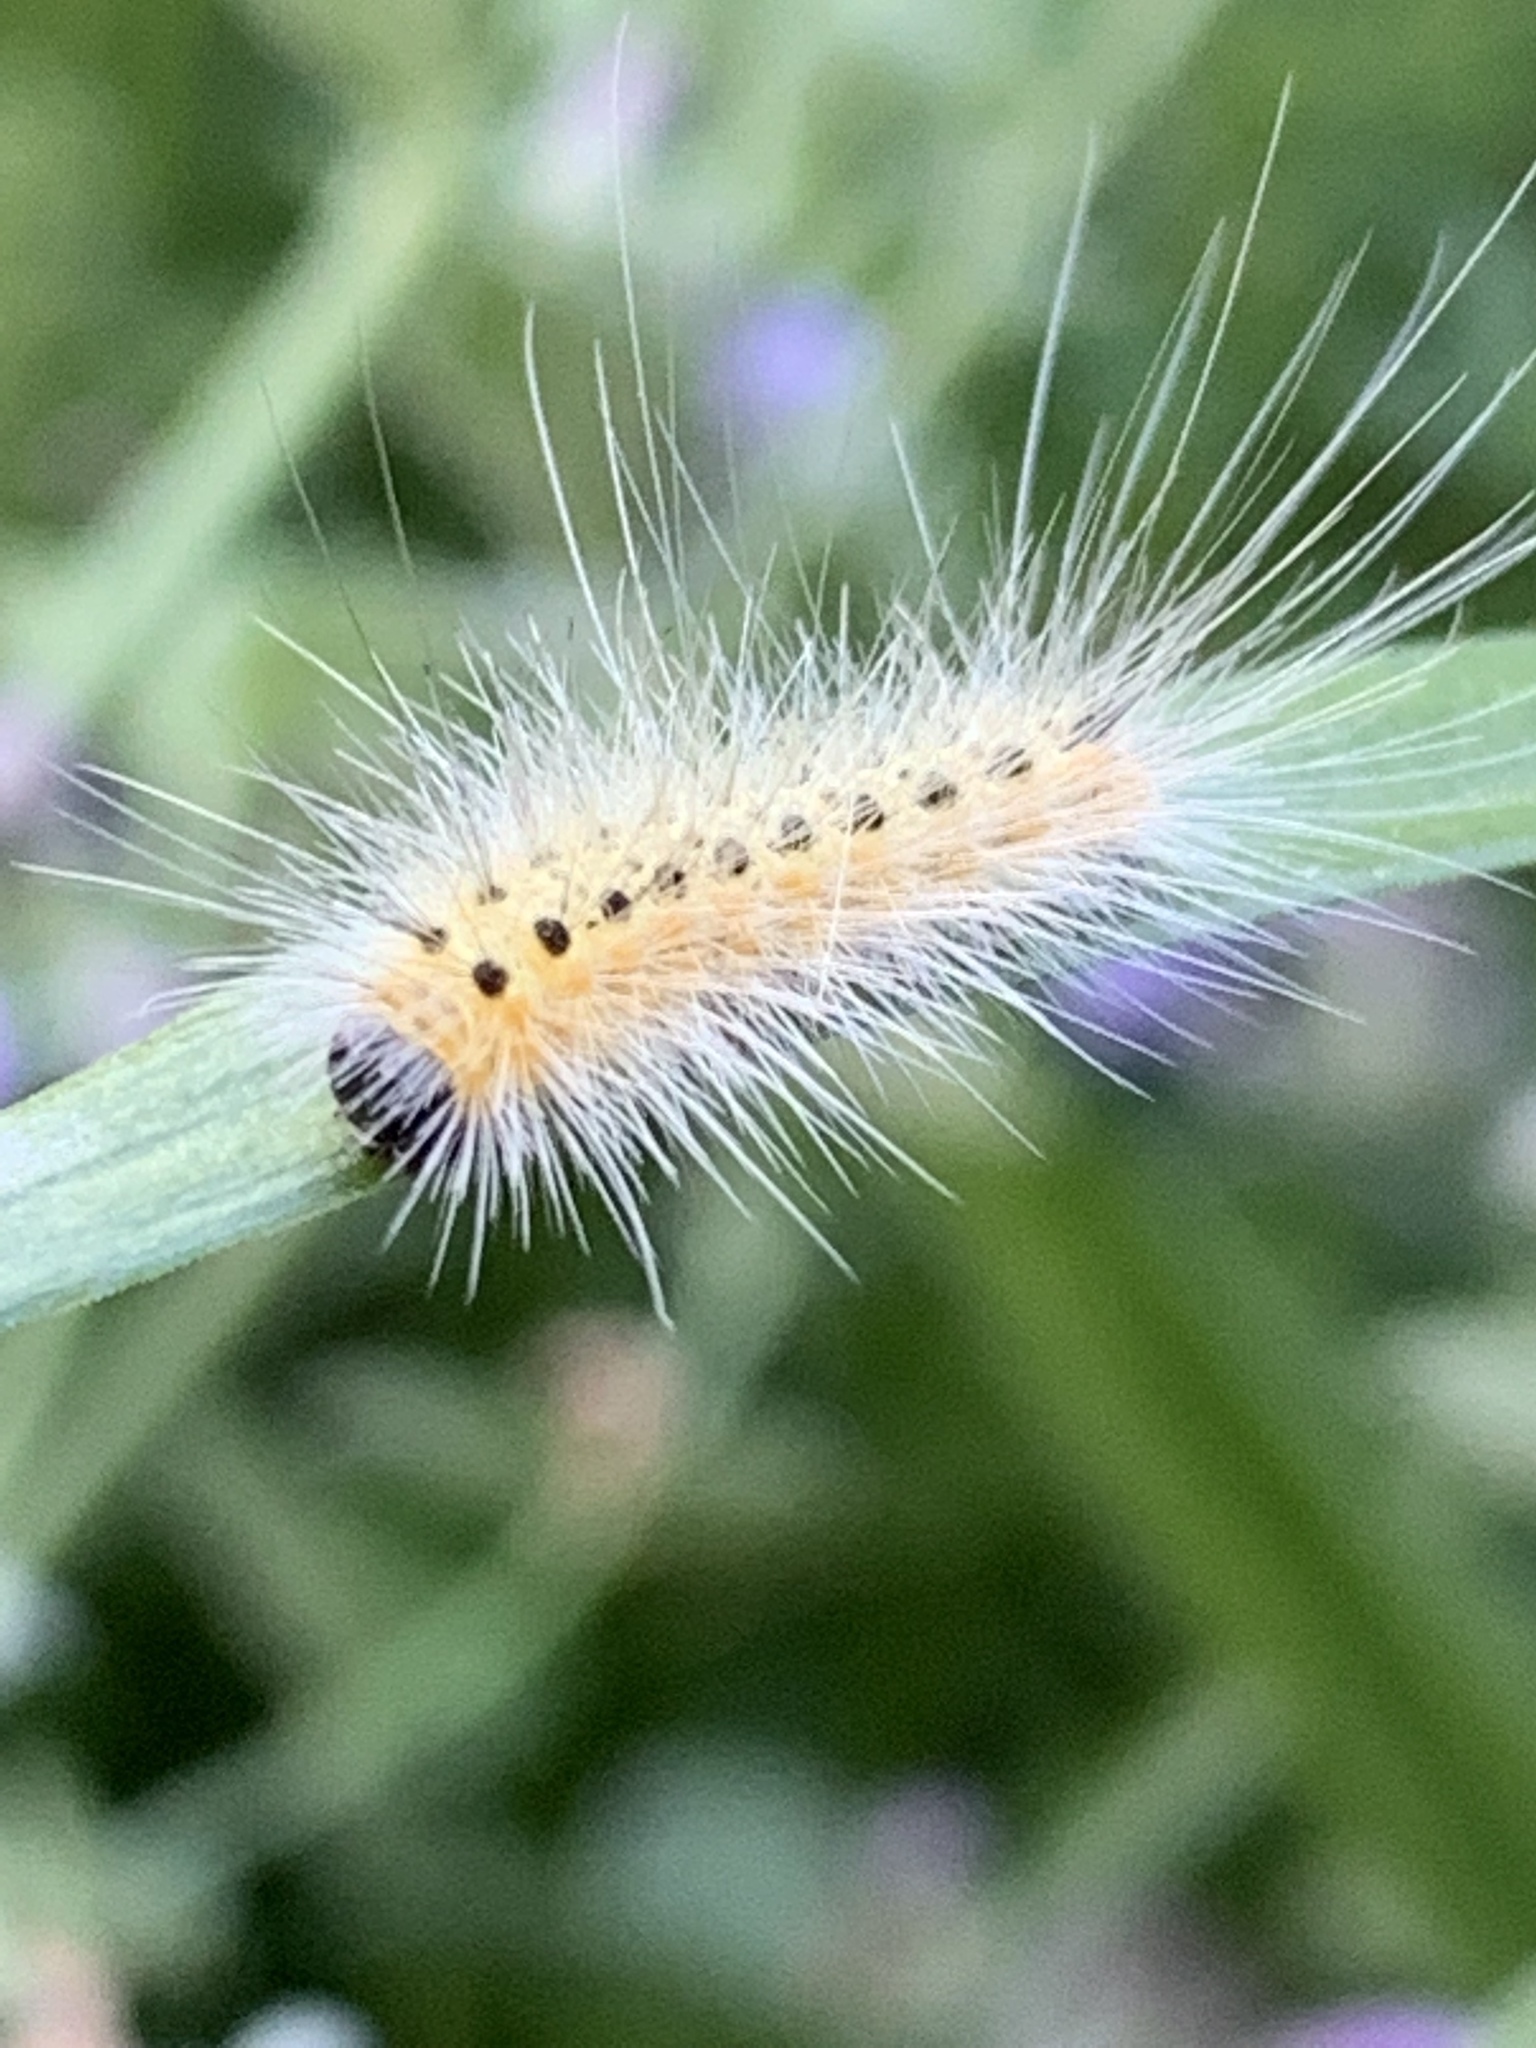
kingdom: Animalia
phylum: Arthropoda
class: Insecta
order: Lepidoptera
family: Erebidae
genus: Hyphantria
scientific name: Hyphantria cunea
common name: American white moth
